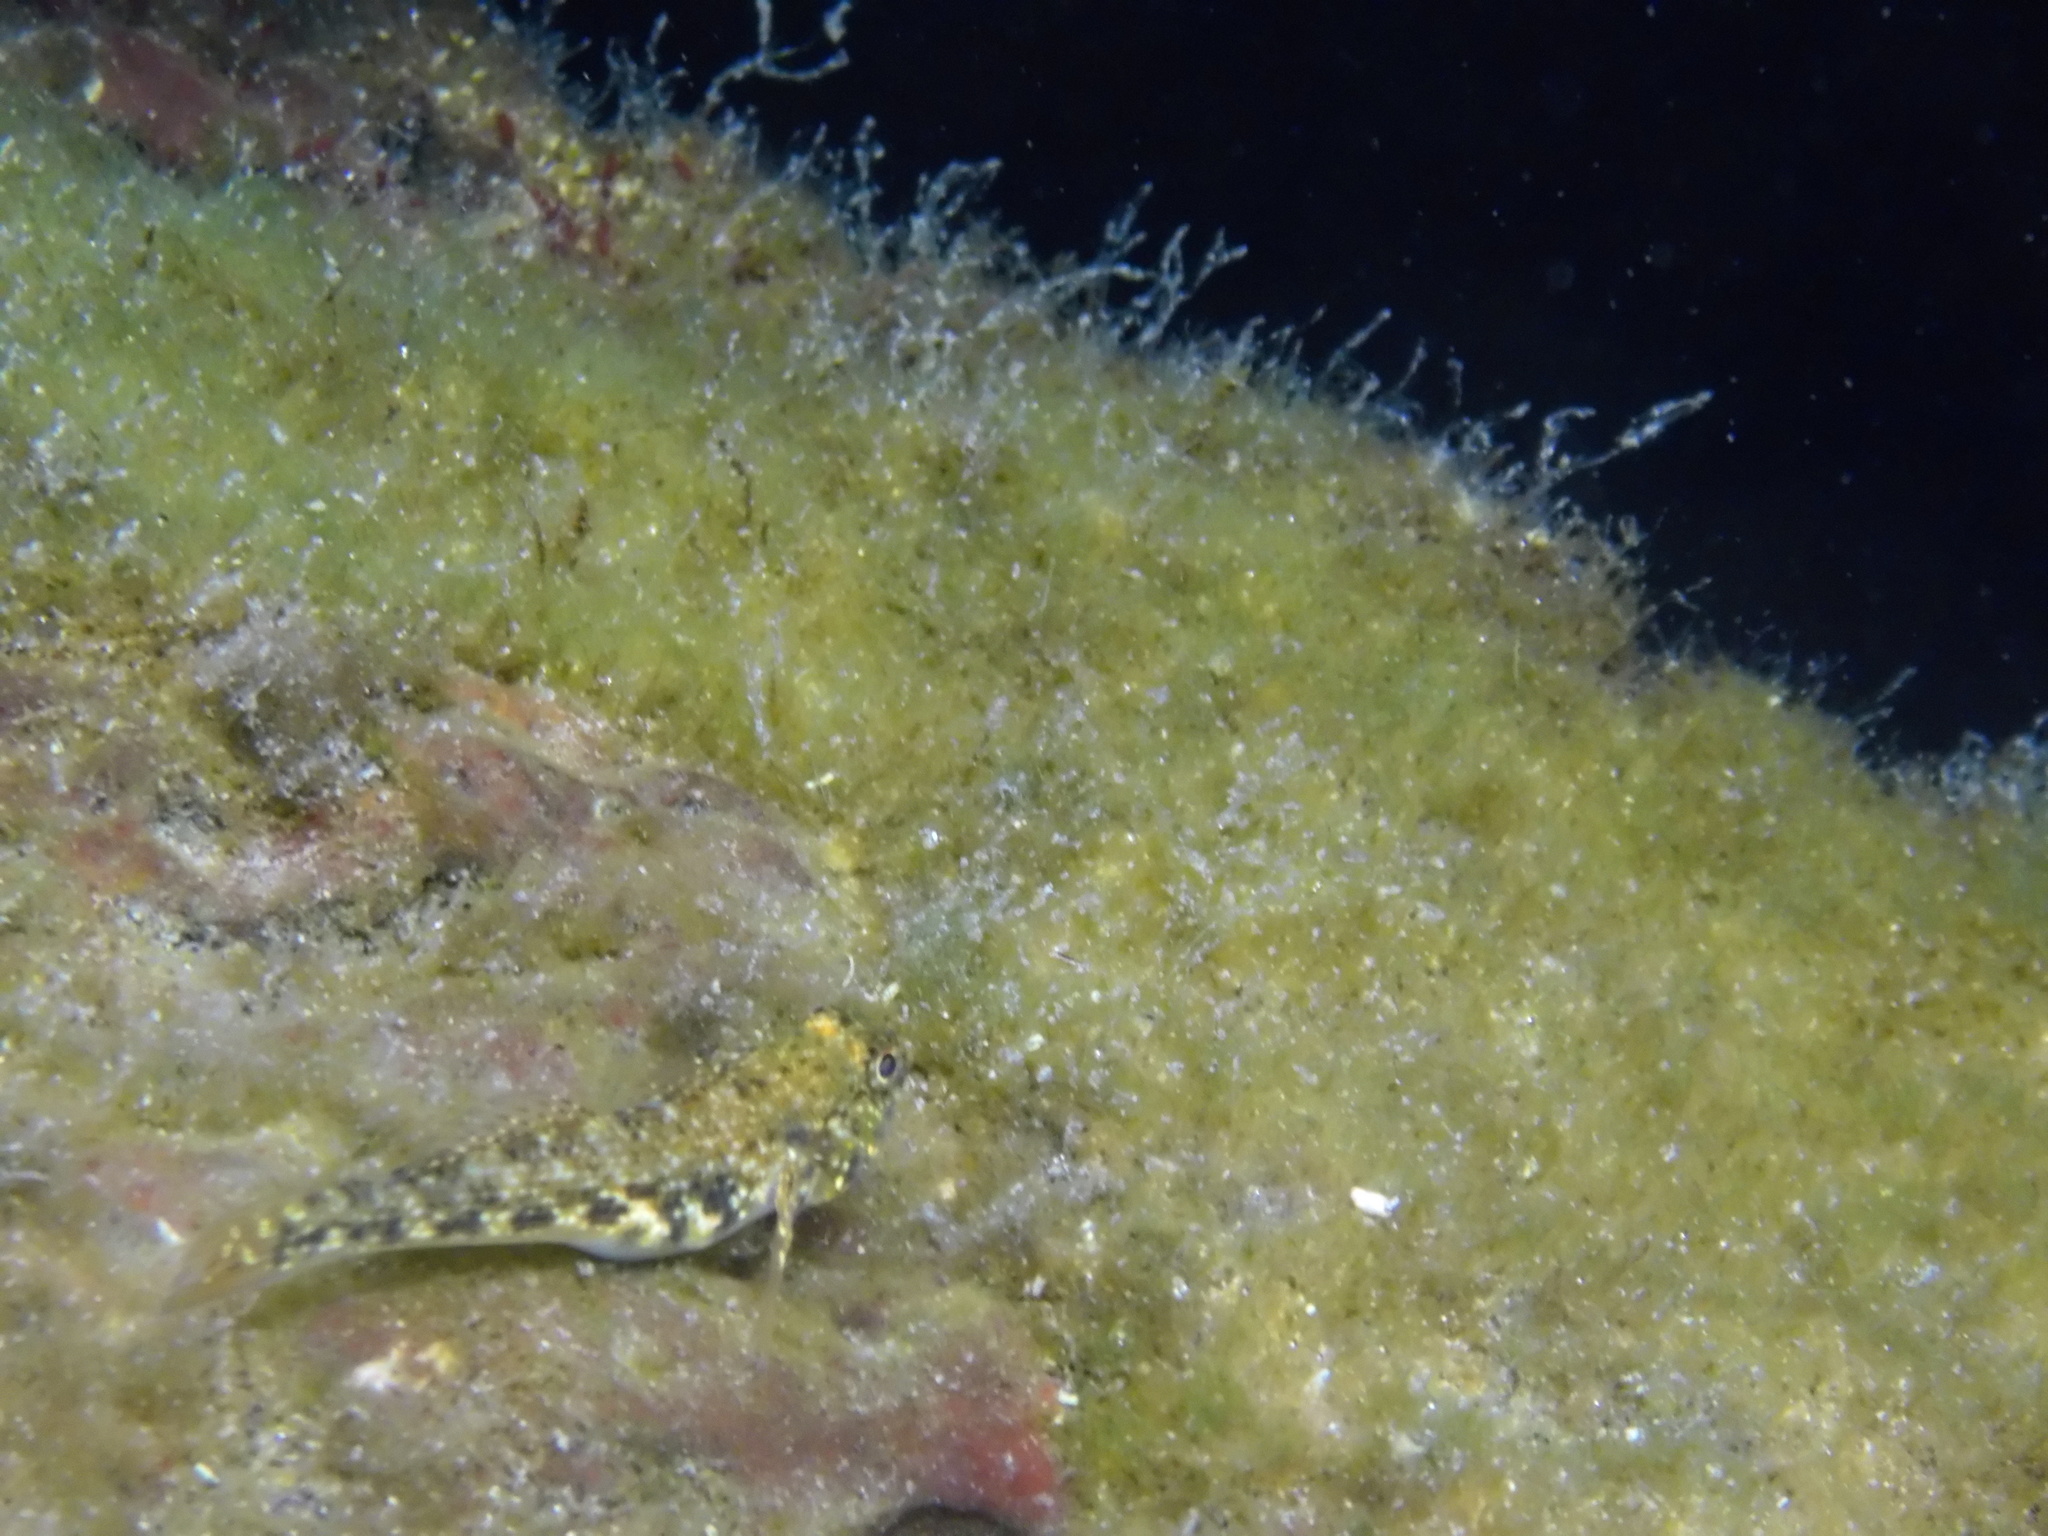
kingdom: Animalia
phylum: Chordata
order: Perciformes
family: Gobiidae
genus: Bathygobius
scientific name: Bathygobius lineatus
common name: Southern frillfin
